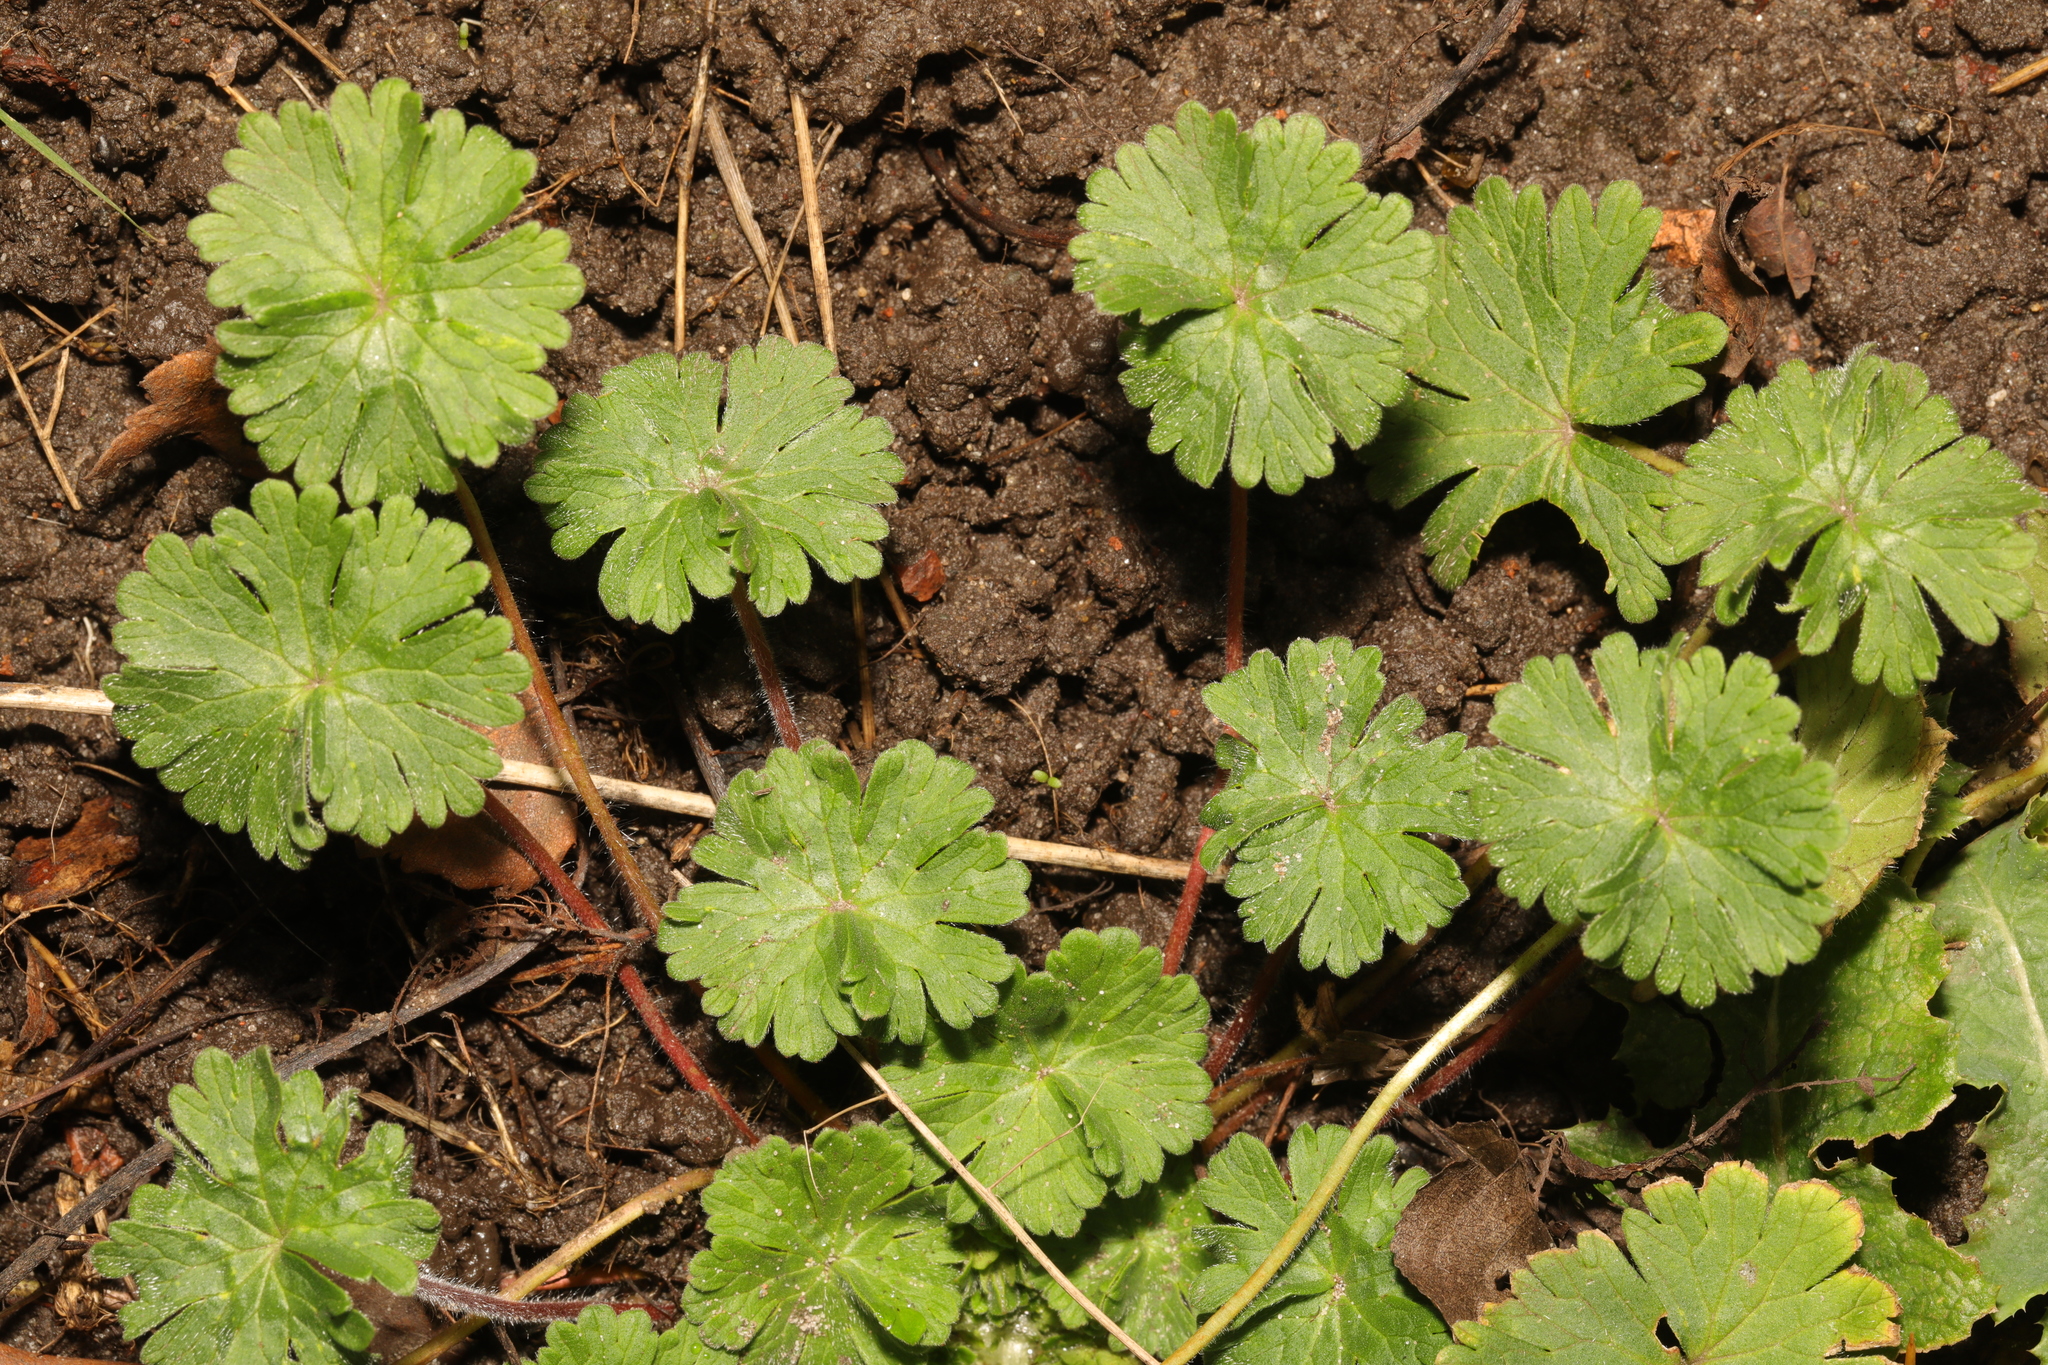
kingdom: Plantae
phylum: Tracheophyta
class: Magnoliopsida
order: Geraniales
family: Geraniaceae
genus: Geranium
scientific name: Geranium molle
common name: Dove's-foot crane's-bill
